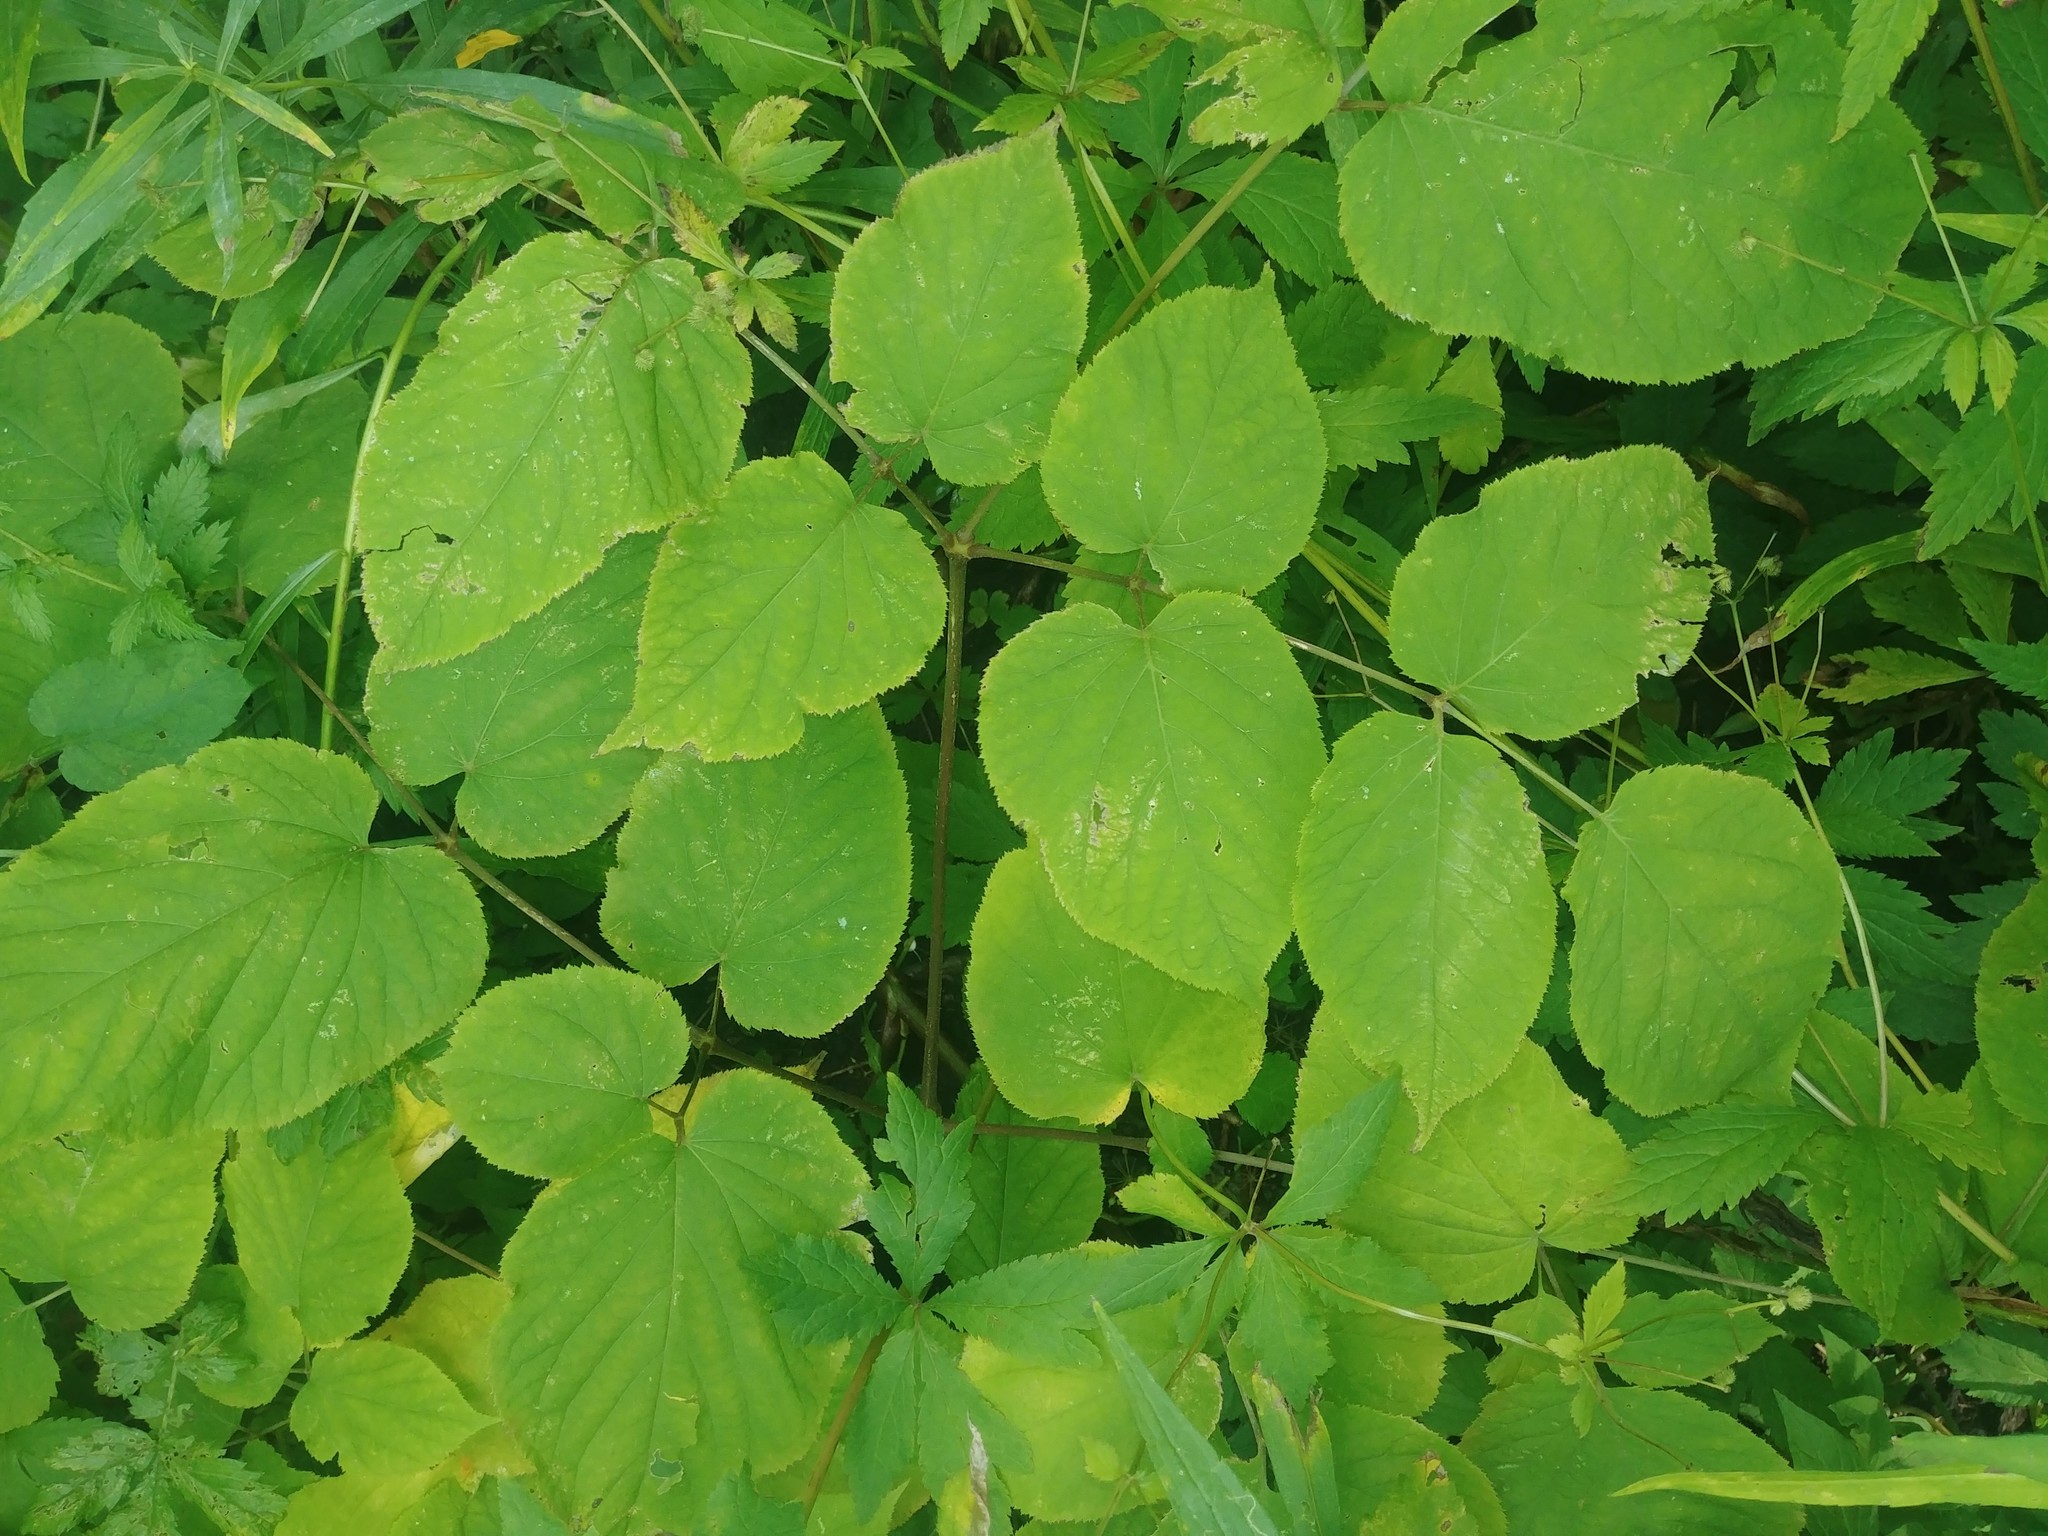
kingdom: Plantae
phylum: Tracheophyta
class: Magnoliopsida
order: Apiales
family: Araliaceae
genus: Aralia
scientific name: Aralia racemosa
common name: American-spikenard
